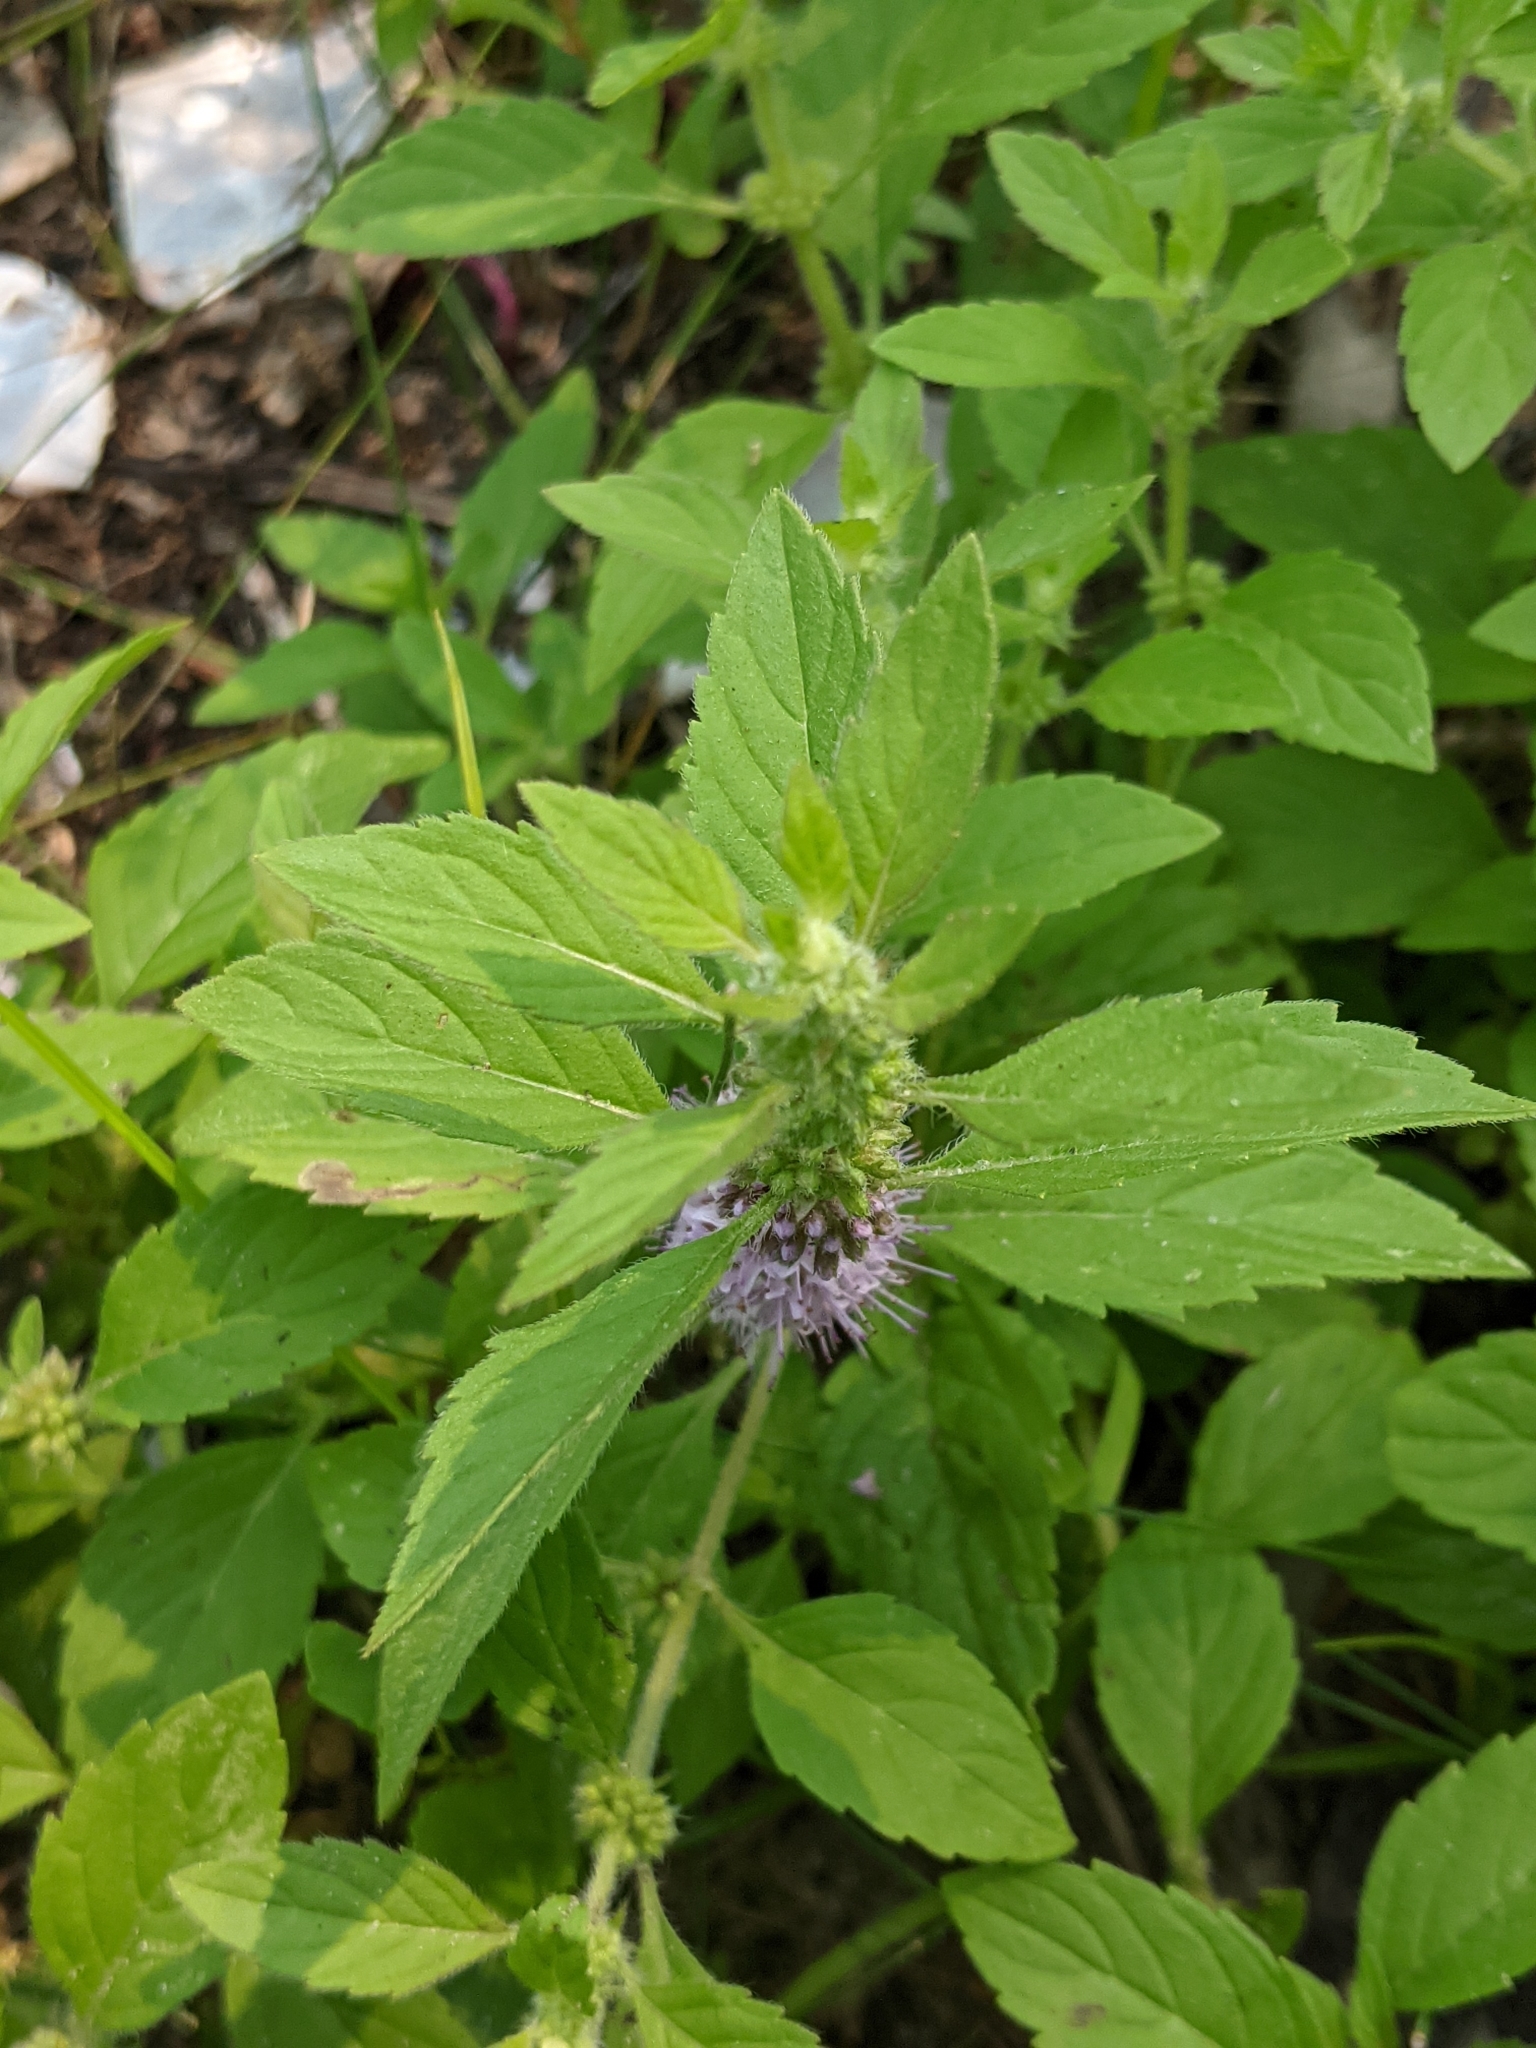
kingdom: Plantae
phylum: Tracheophyta
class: Magnoliopsida
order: Lamiales
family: Lamiaceae
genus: Mentha
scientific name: Mentha canadensis
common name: American corn mint
